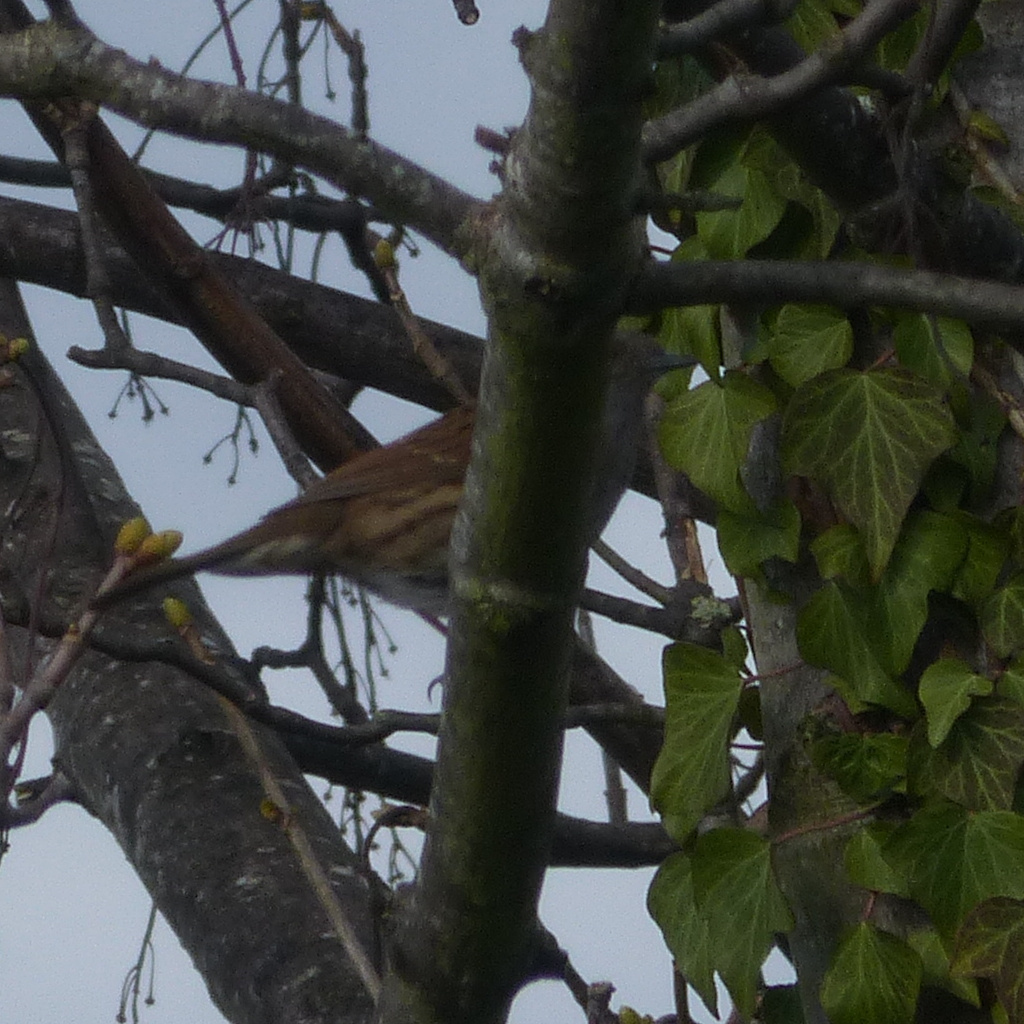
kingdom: Animalia
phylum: Chordata
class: Aves
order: Passeriformes
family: Prunellidae
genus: Prunella
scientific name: Prunella modularis
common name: Dunnock
